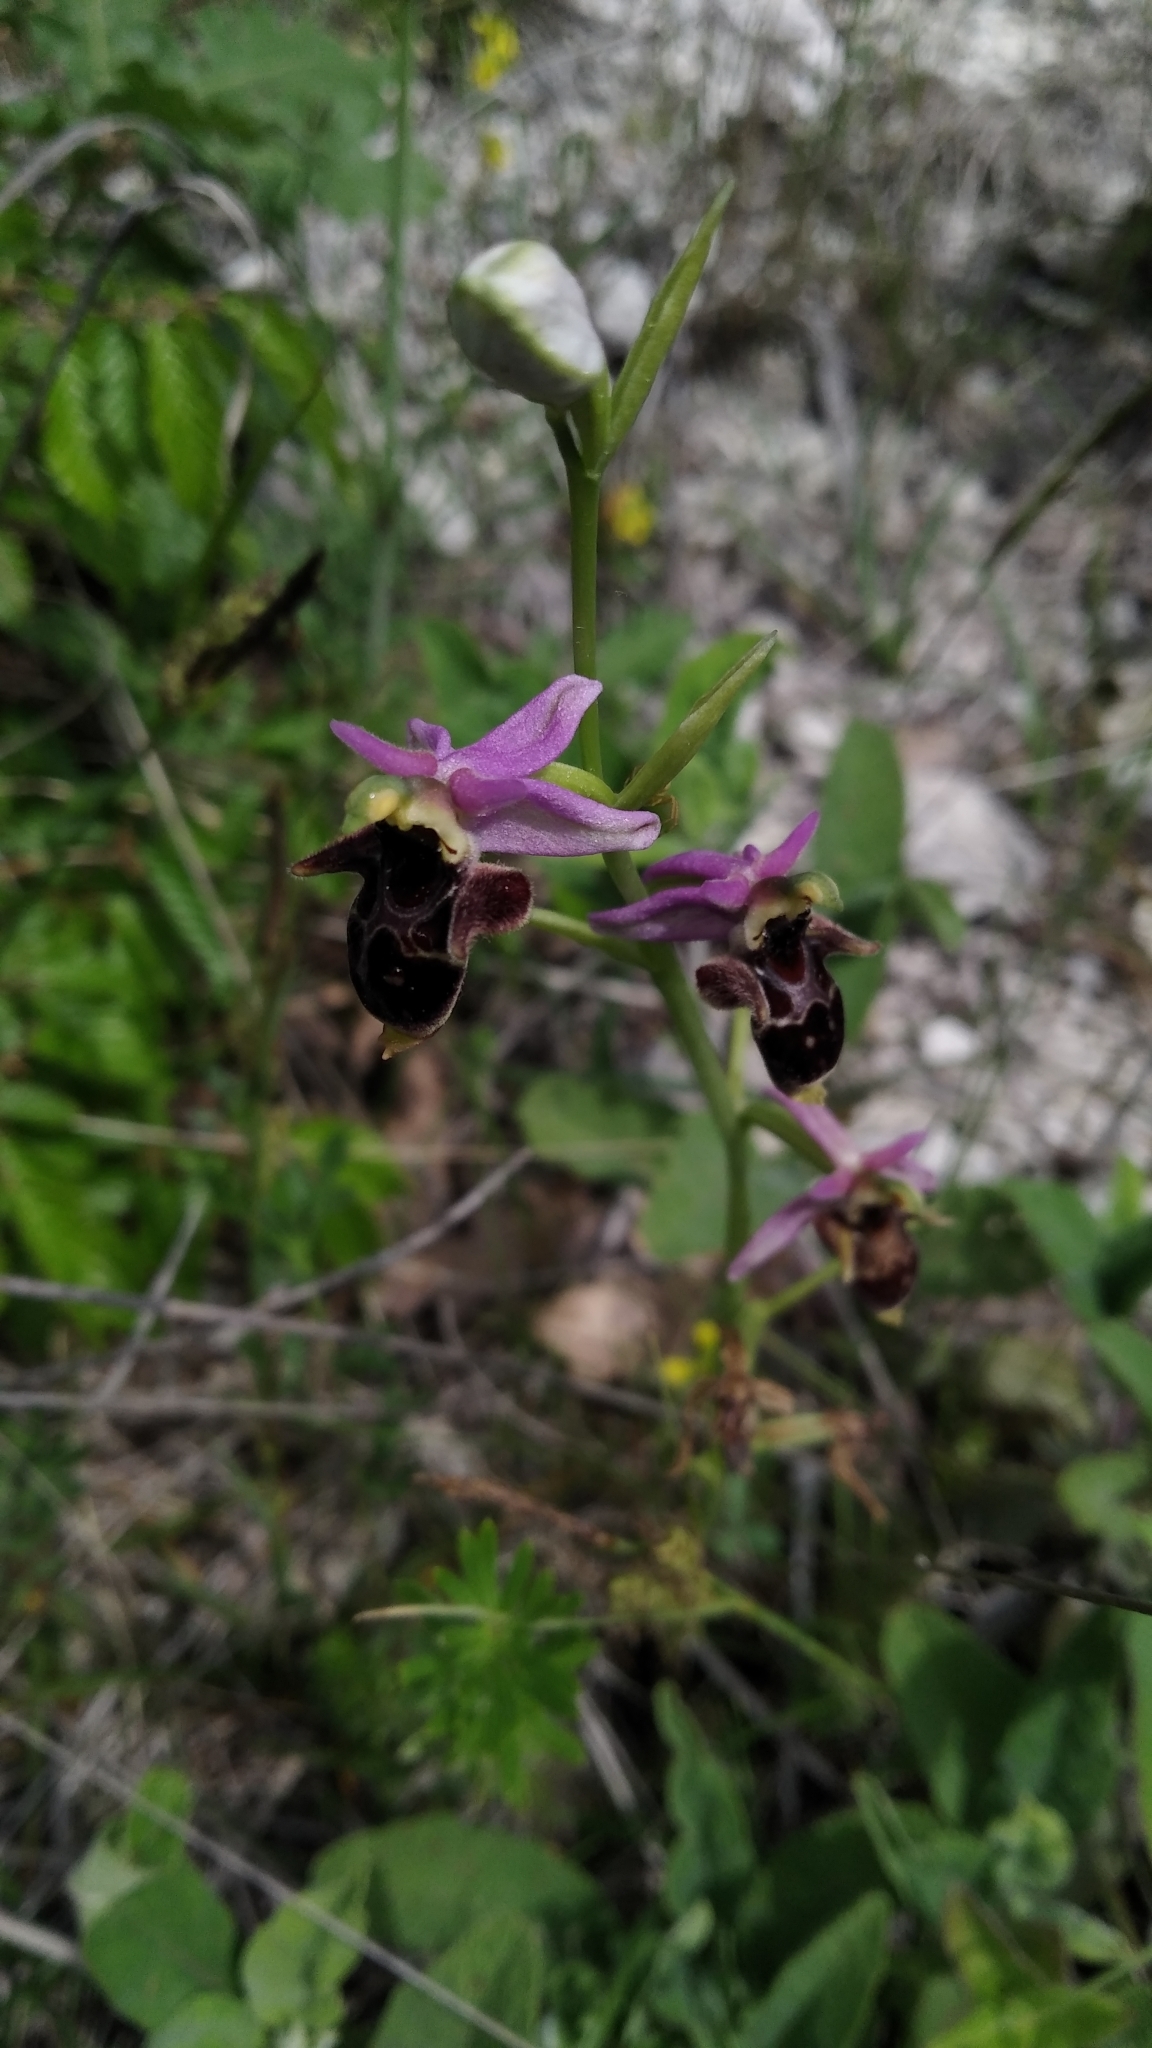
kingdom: Plantae
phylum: Tracheophyta
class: Liliopsida
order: Asparagales
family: Orchidaceae
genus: Ophrys
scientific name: Ophrys
